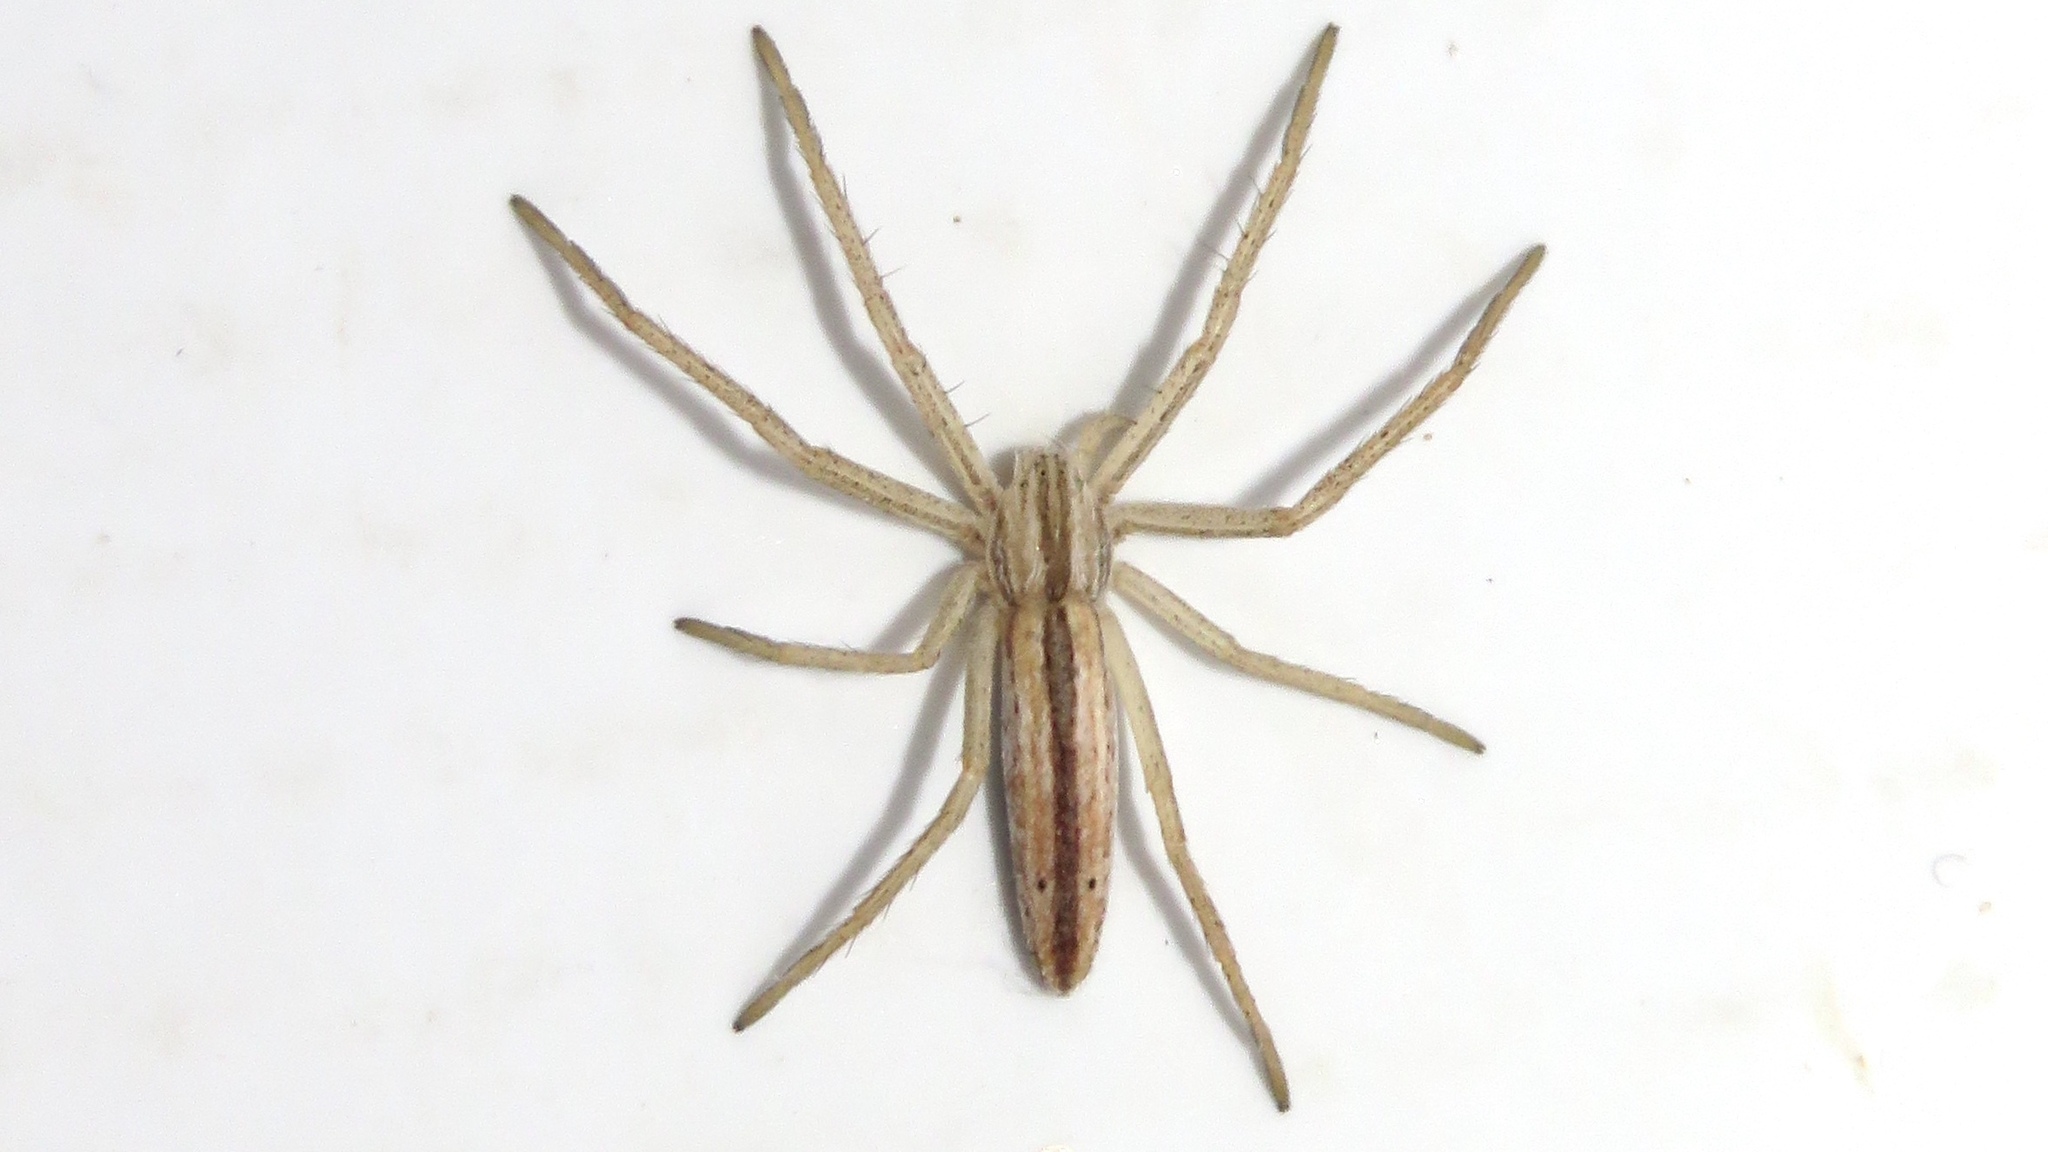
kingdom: Animalia
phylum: Arthropoda
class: Arachnida
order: Araneae
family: Philodromidae
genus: Tibellus
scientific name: Tibellus oblongus
